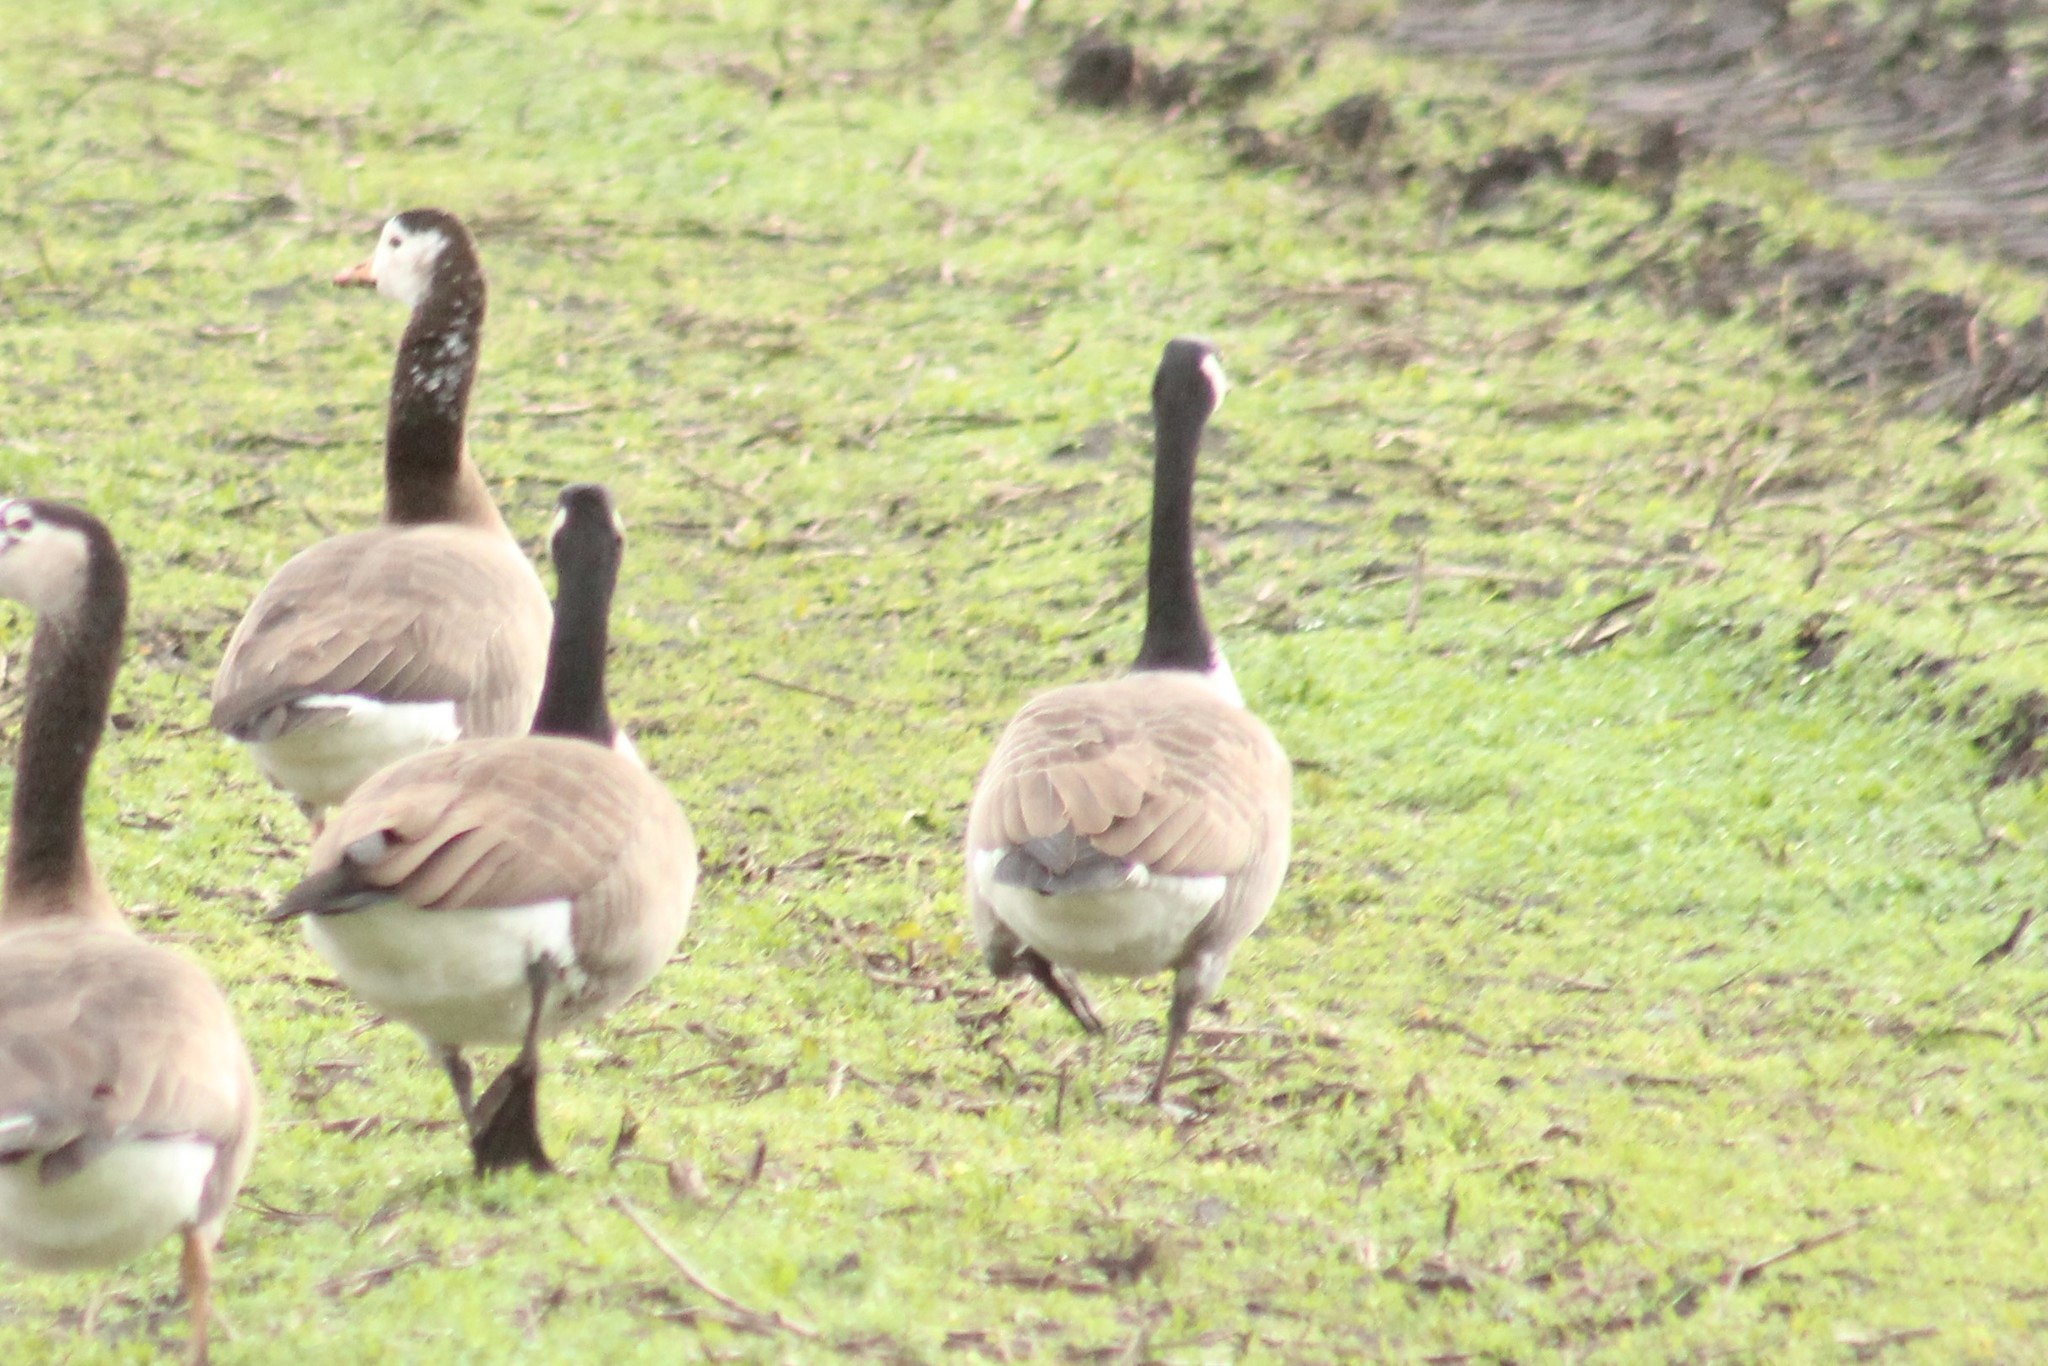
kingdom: Animalia
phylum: Chordata
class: Aves
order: Anseriformes
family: Anatidae
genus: Branta
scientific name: Branta canadensis
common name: Canada goose
